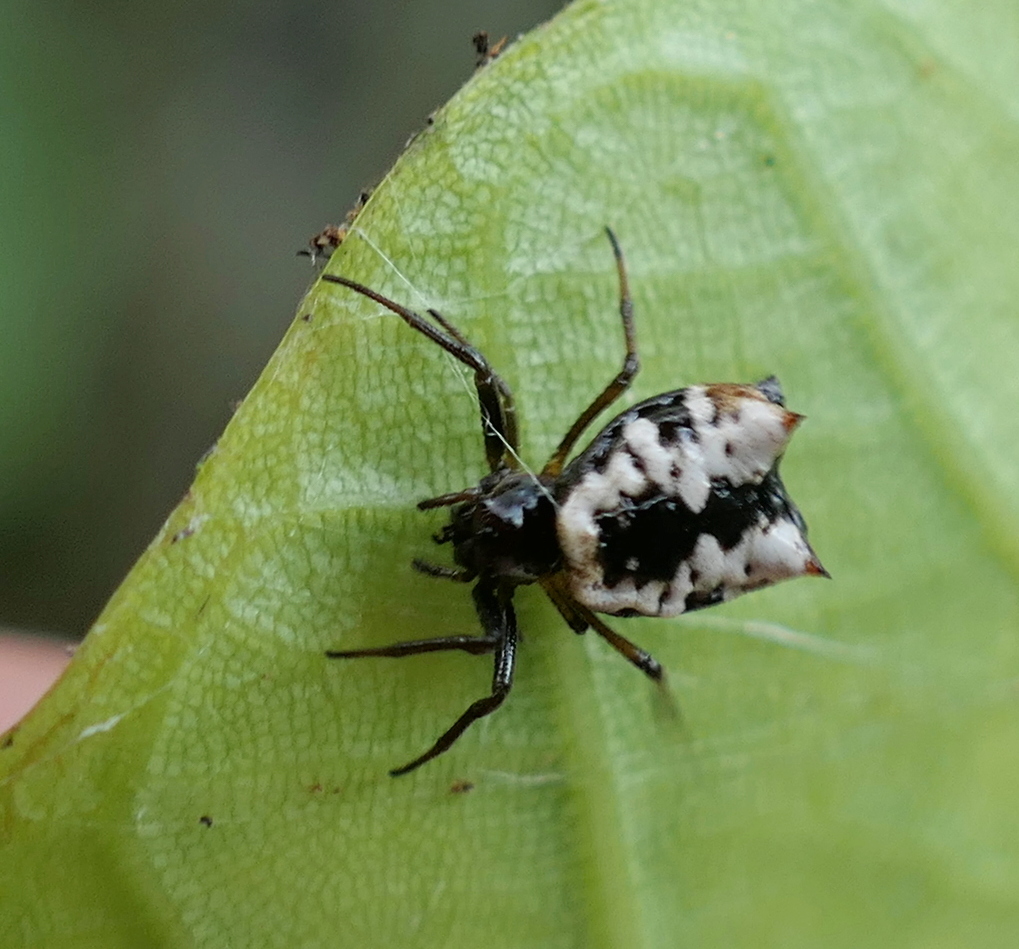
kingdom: Animalia
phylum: Arthropoda
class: Arachnida
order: Araneae
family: Araneidae
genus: Micrathena
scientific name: Micrathena patruelis
